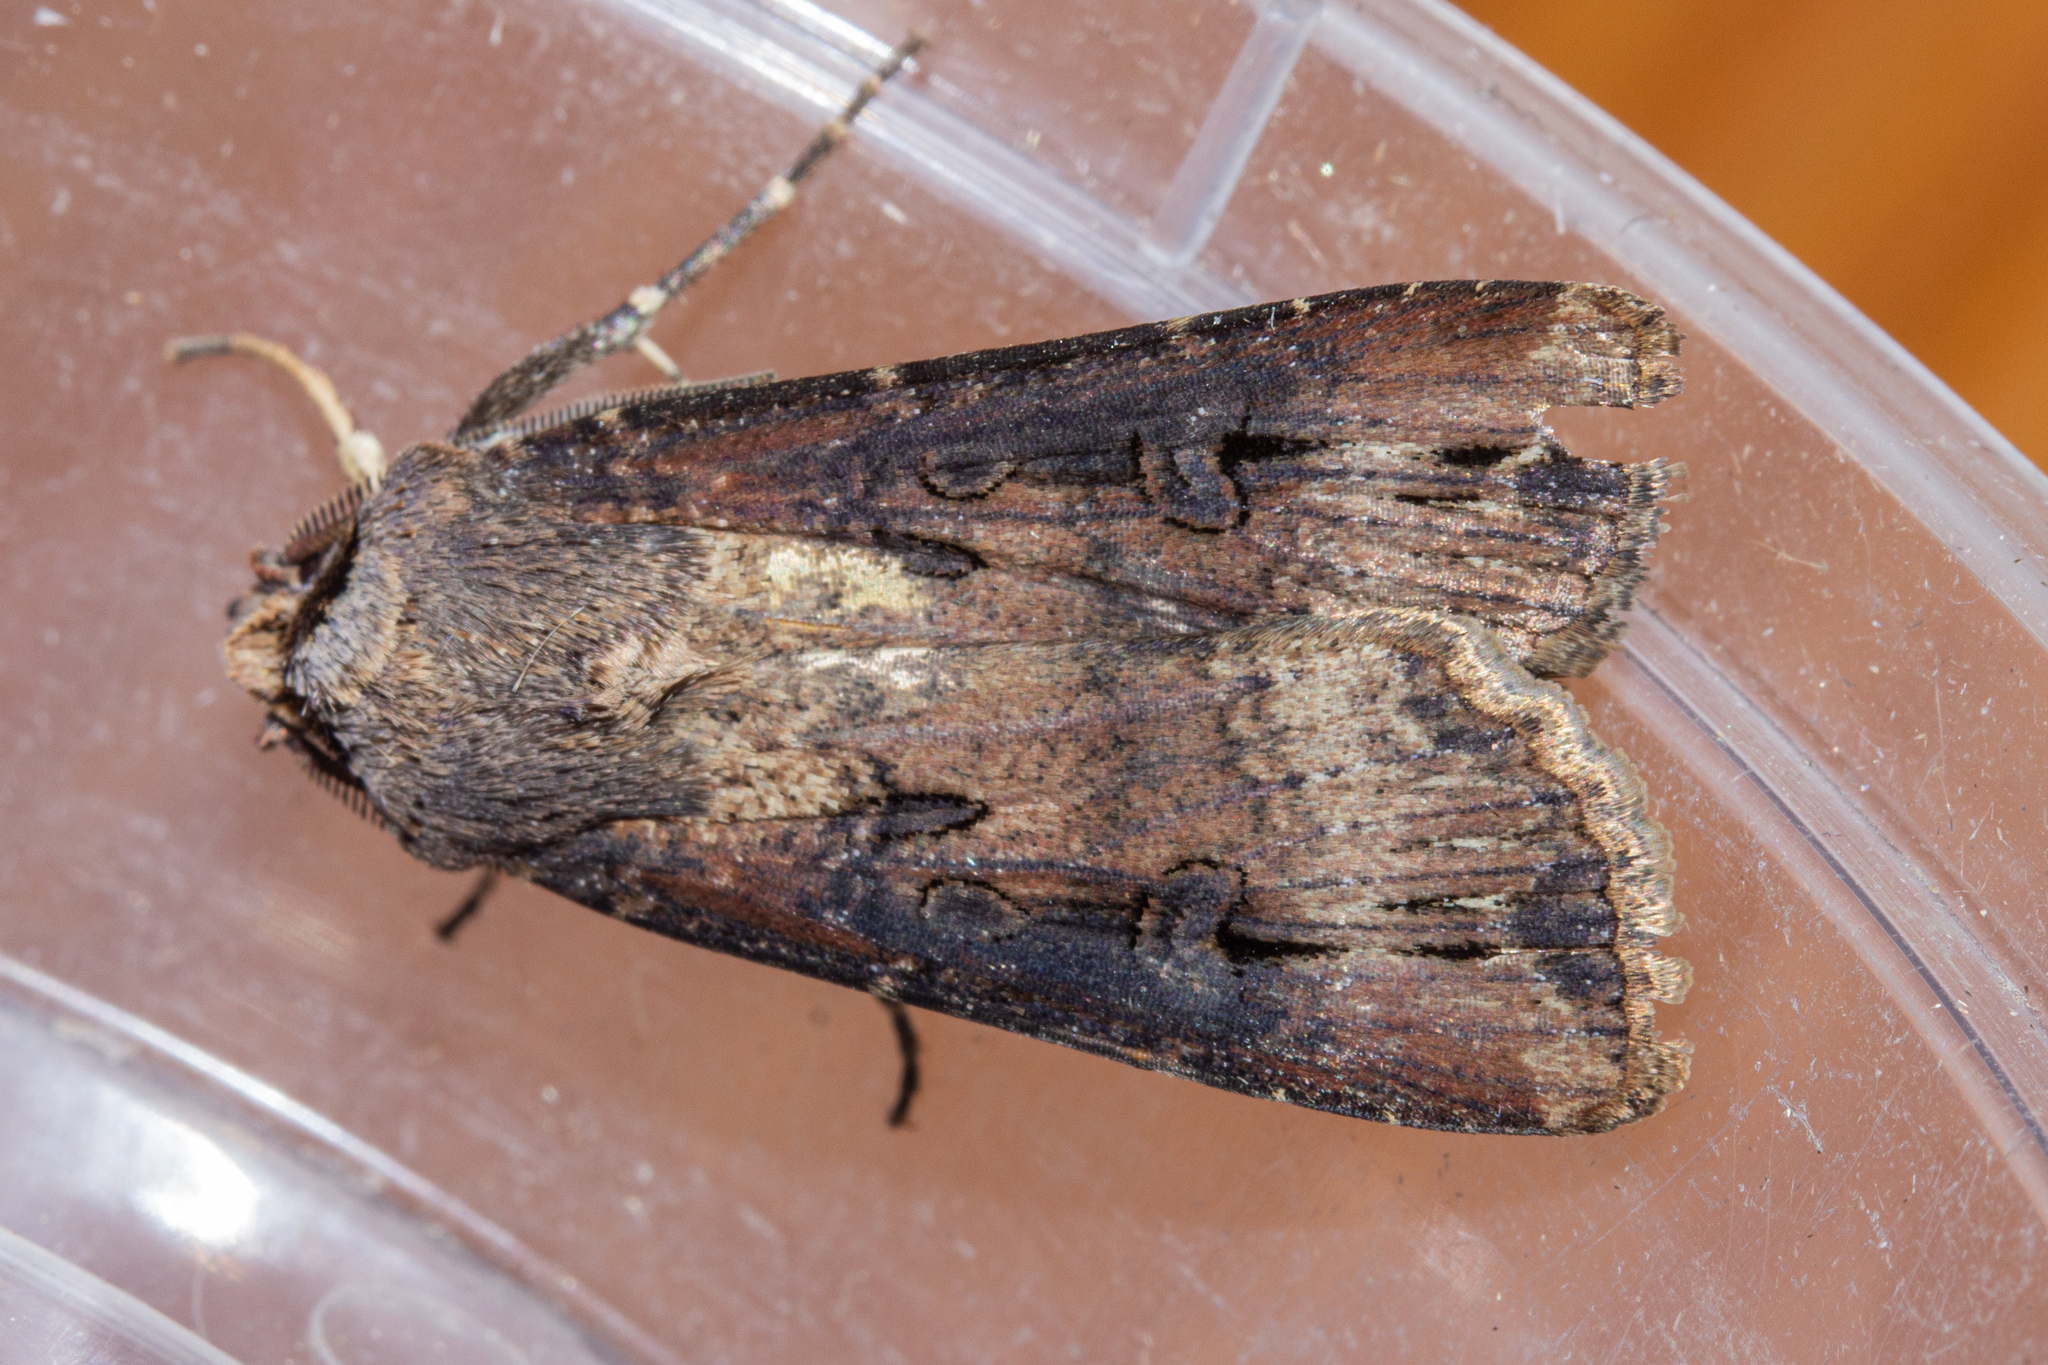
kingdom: Animalia
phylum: Arthropoda
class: Insecta
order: Lepidoptera
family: Noctuidae
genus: Agrotis
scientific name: Agrotis ipsilon
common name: Dark sword-grass
